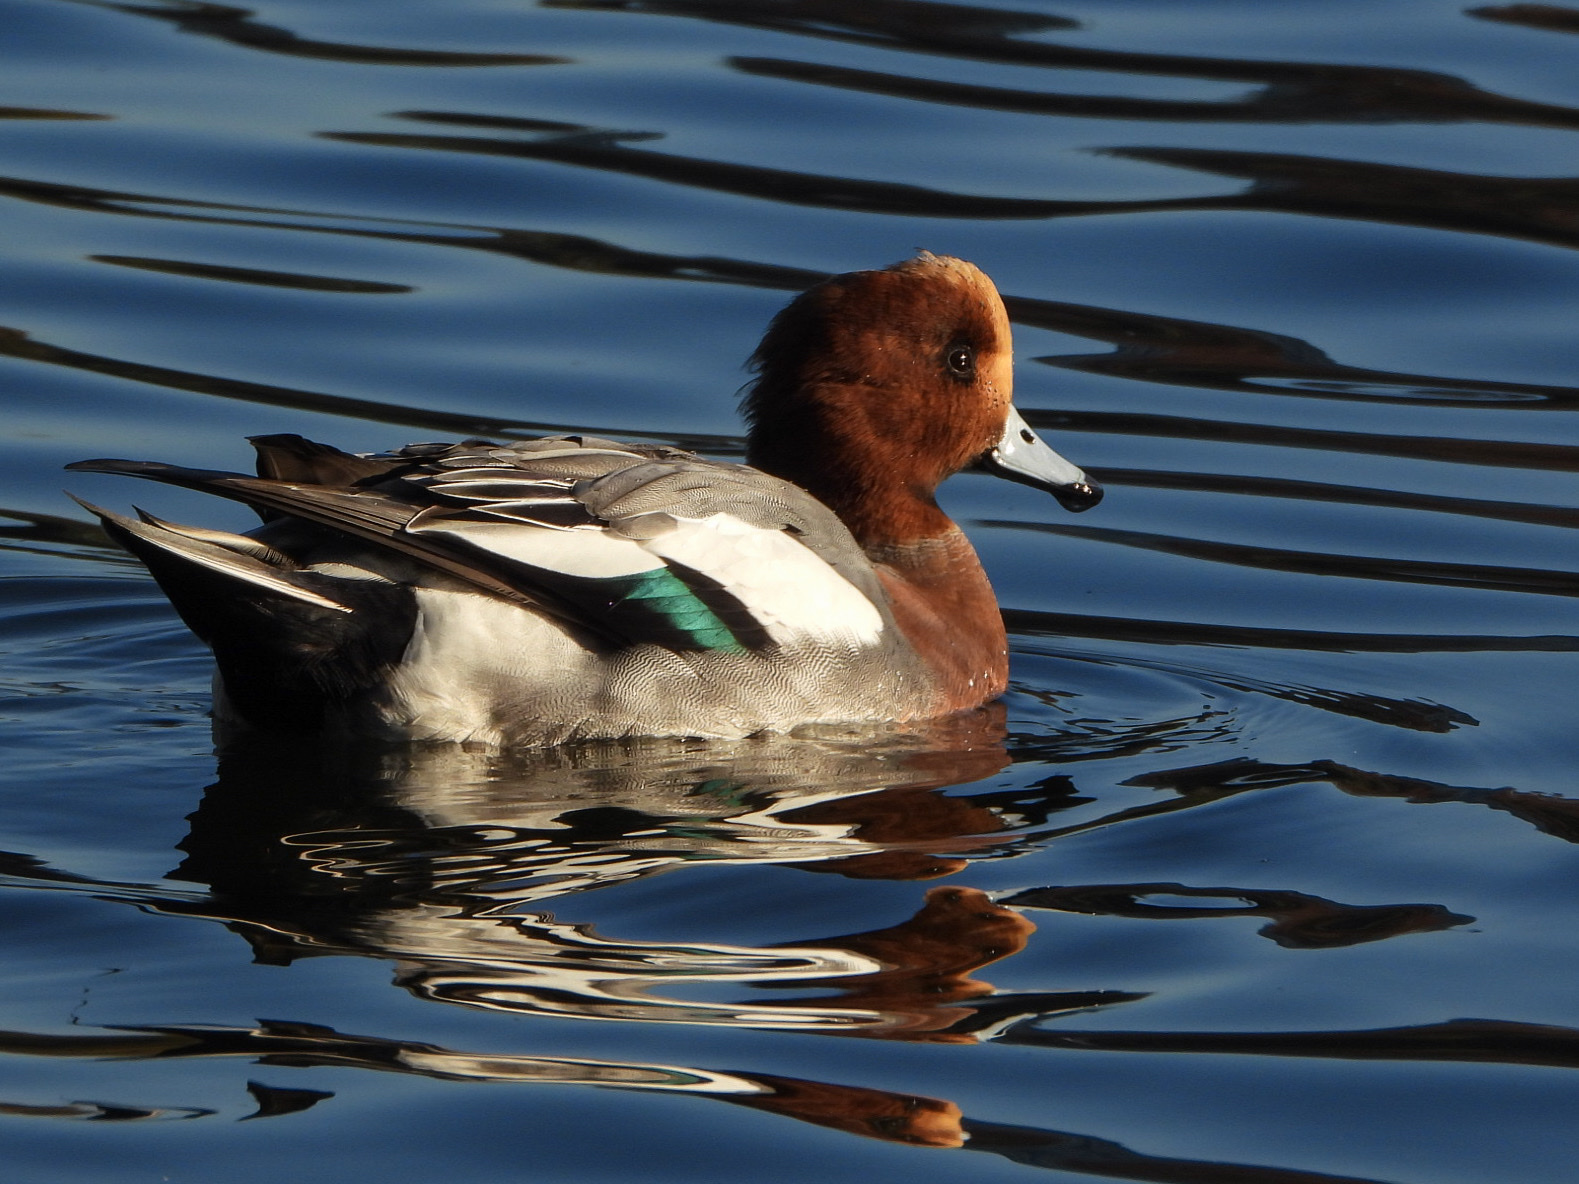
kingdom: Animalia
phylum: Chordata
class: Aves
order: Anseriformes
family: Anatidae
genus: Mareca
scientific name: Mareca penelope
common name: Eurasian wigeon
